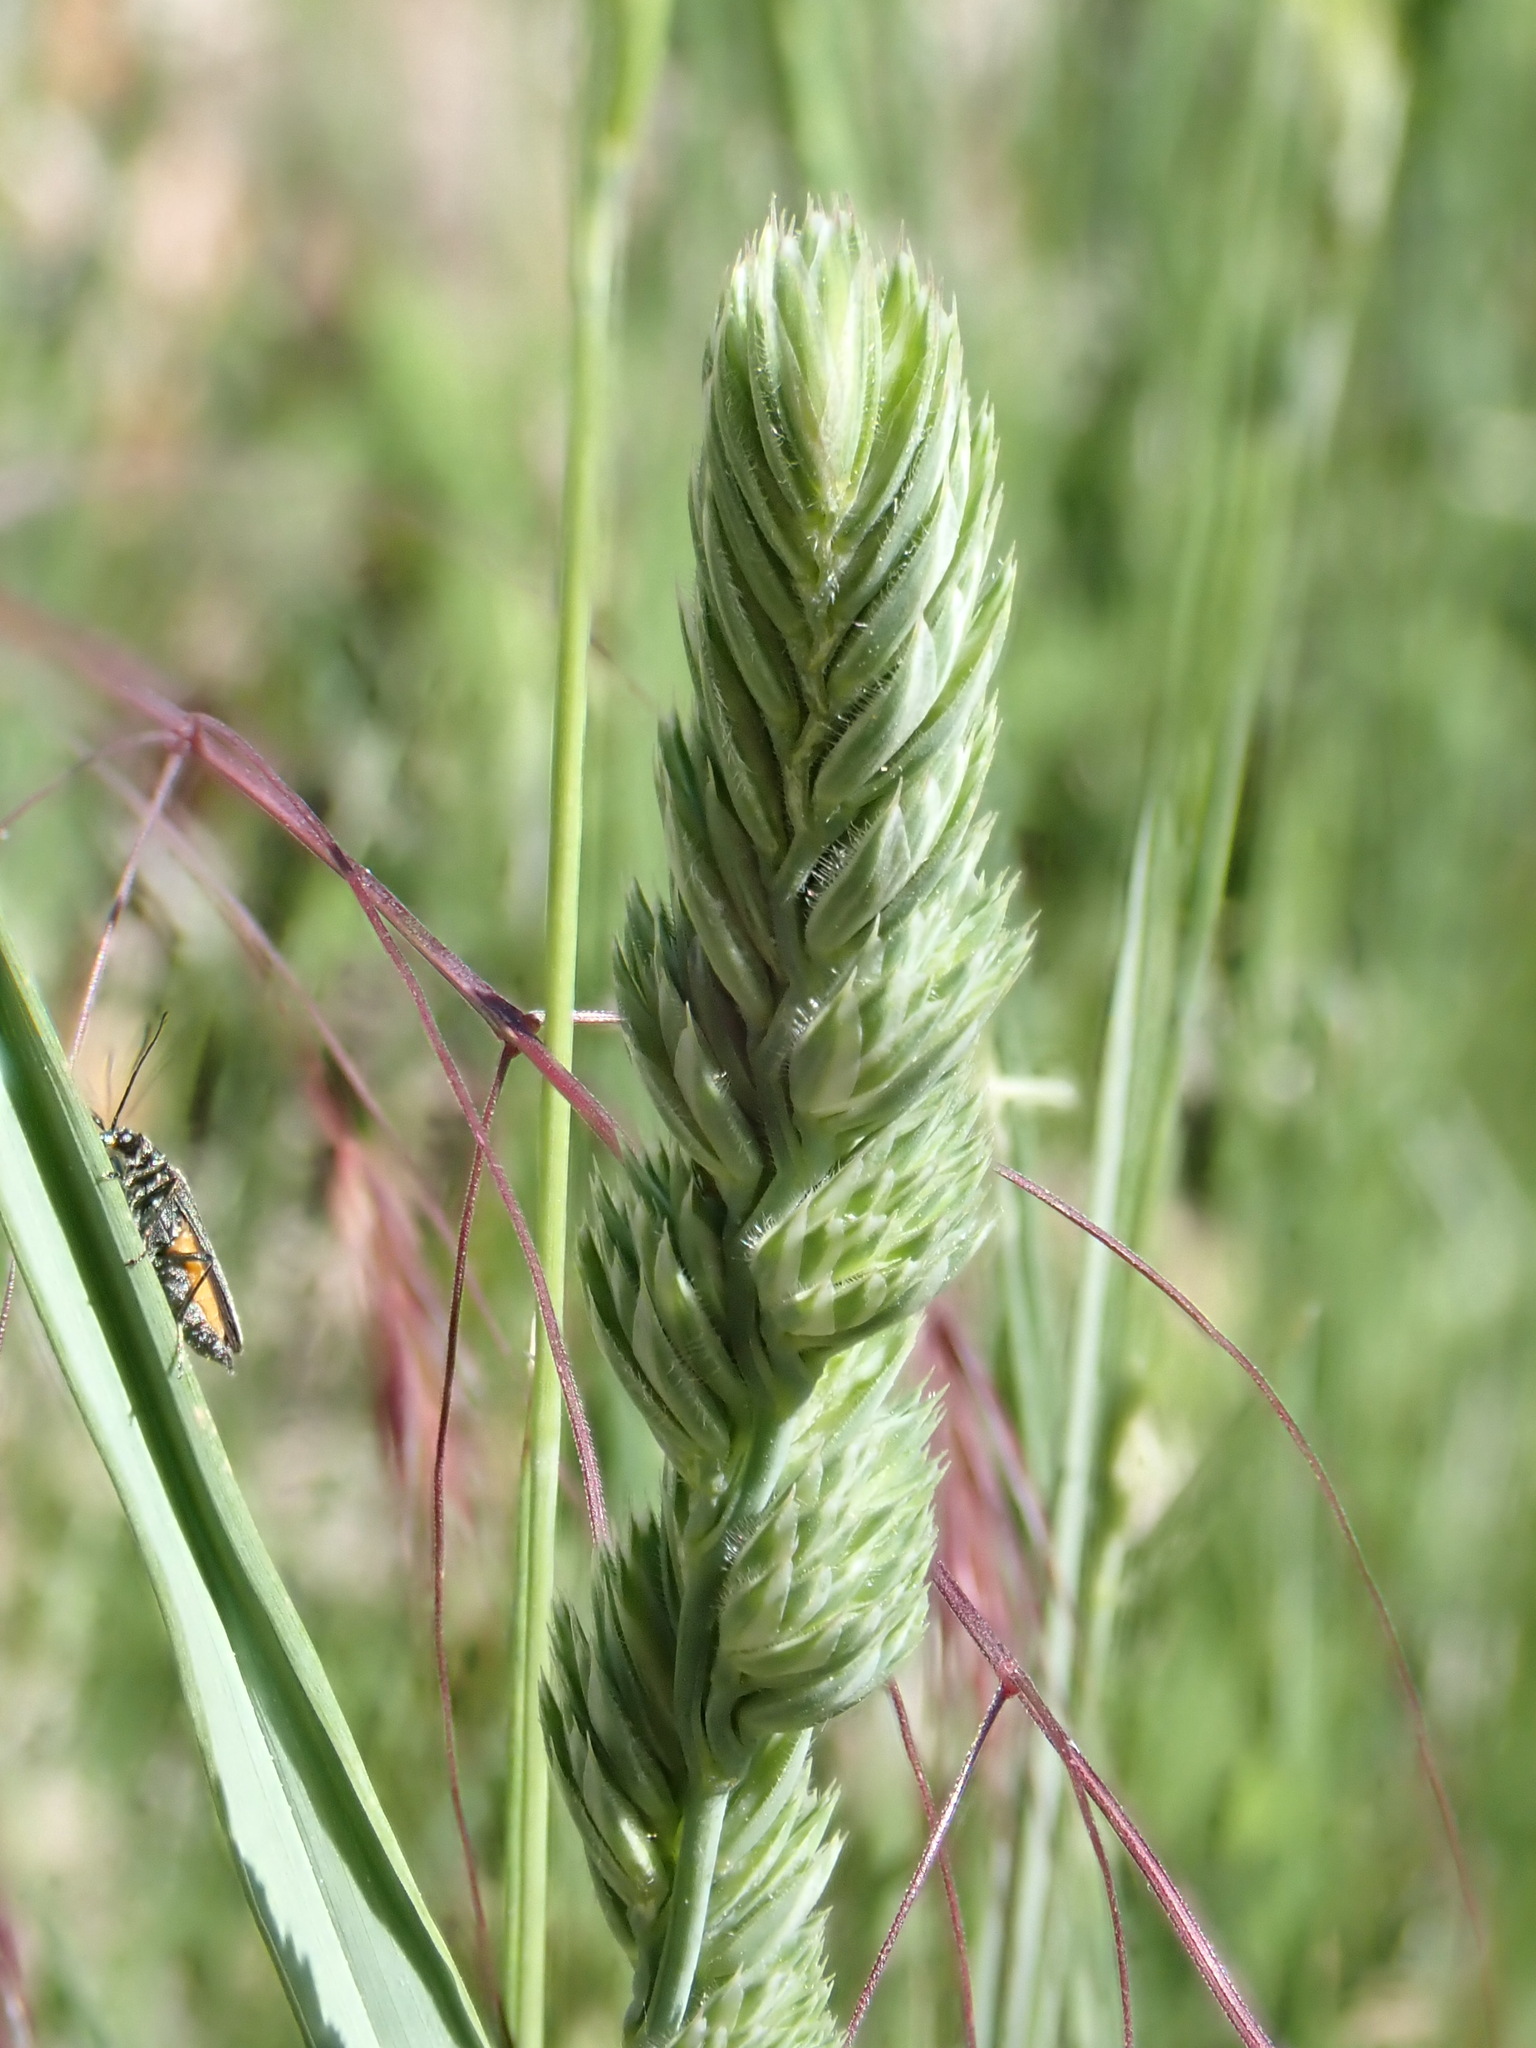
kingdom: Plantae
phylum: Tracheophyta
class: Liliopsida
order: Poales
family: Poaceae
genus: Dactylis
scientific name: Dactylis glomerata
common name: Orchardgrass
